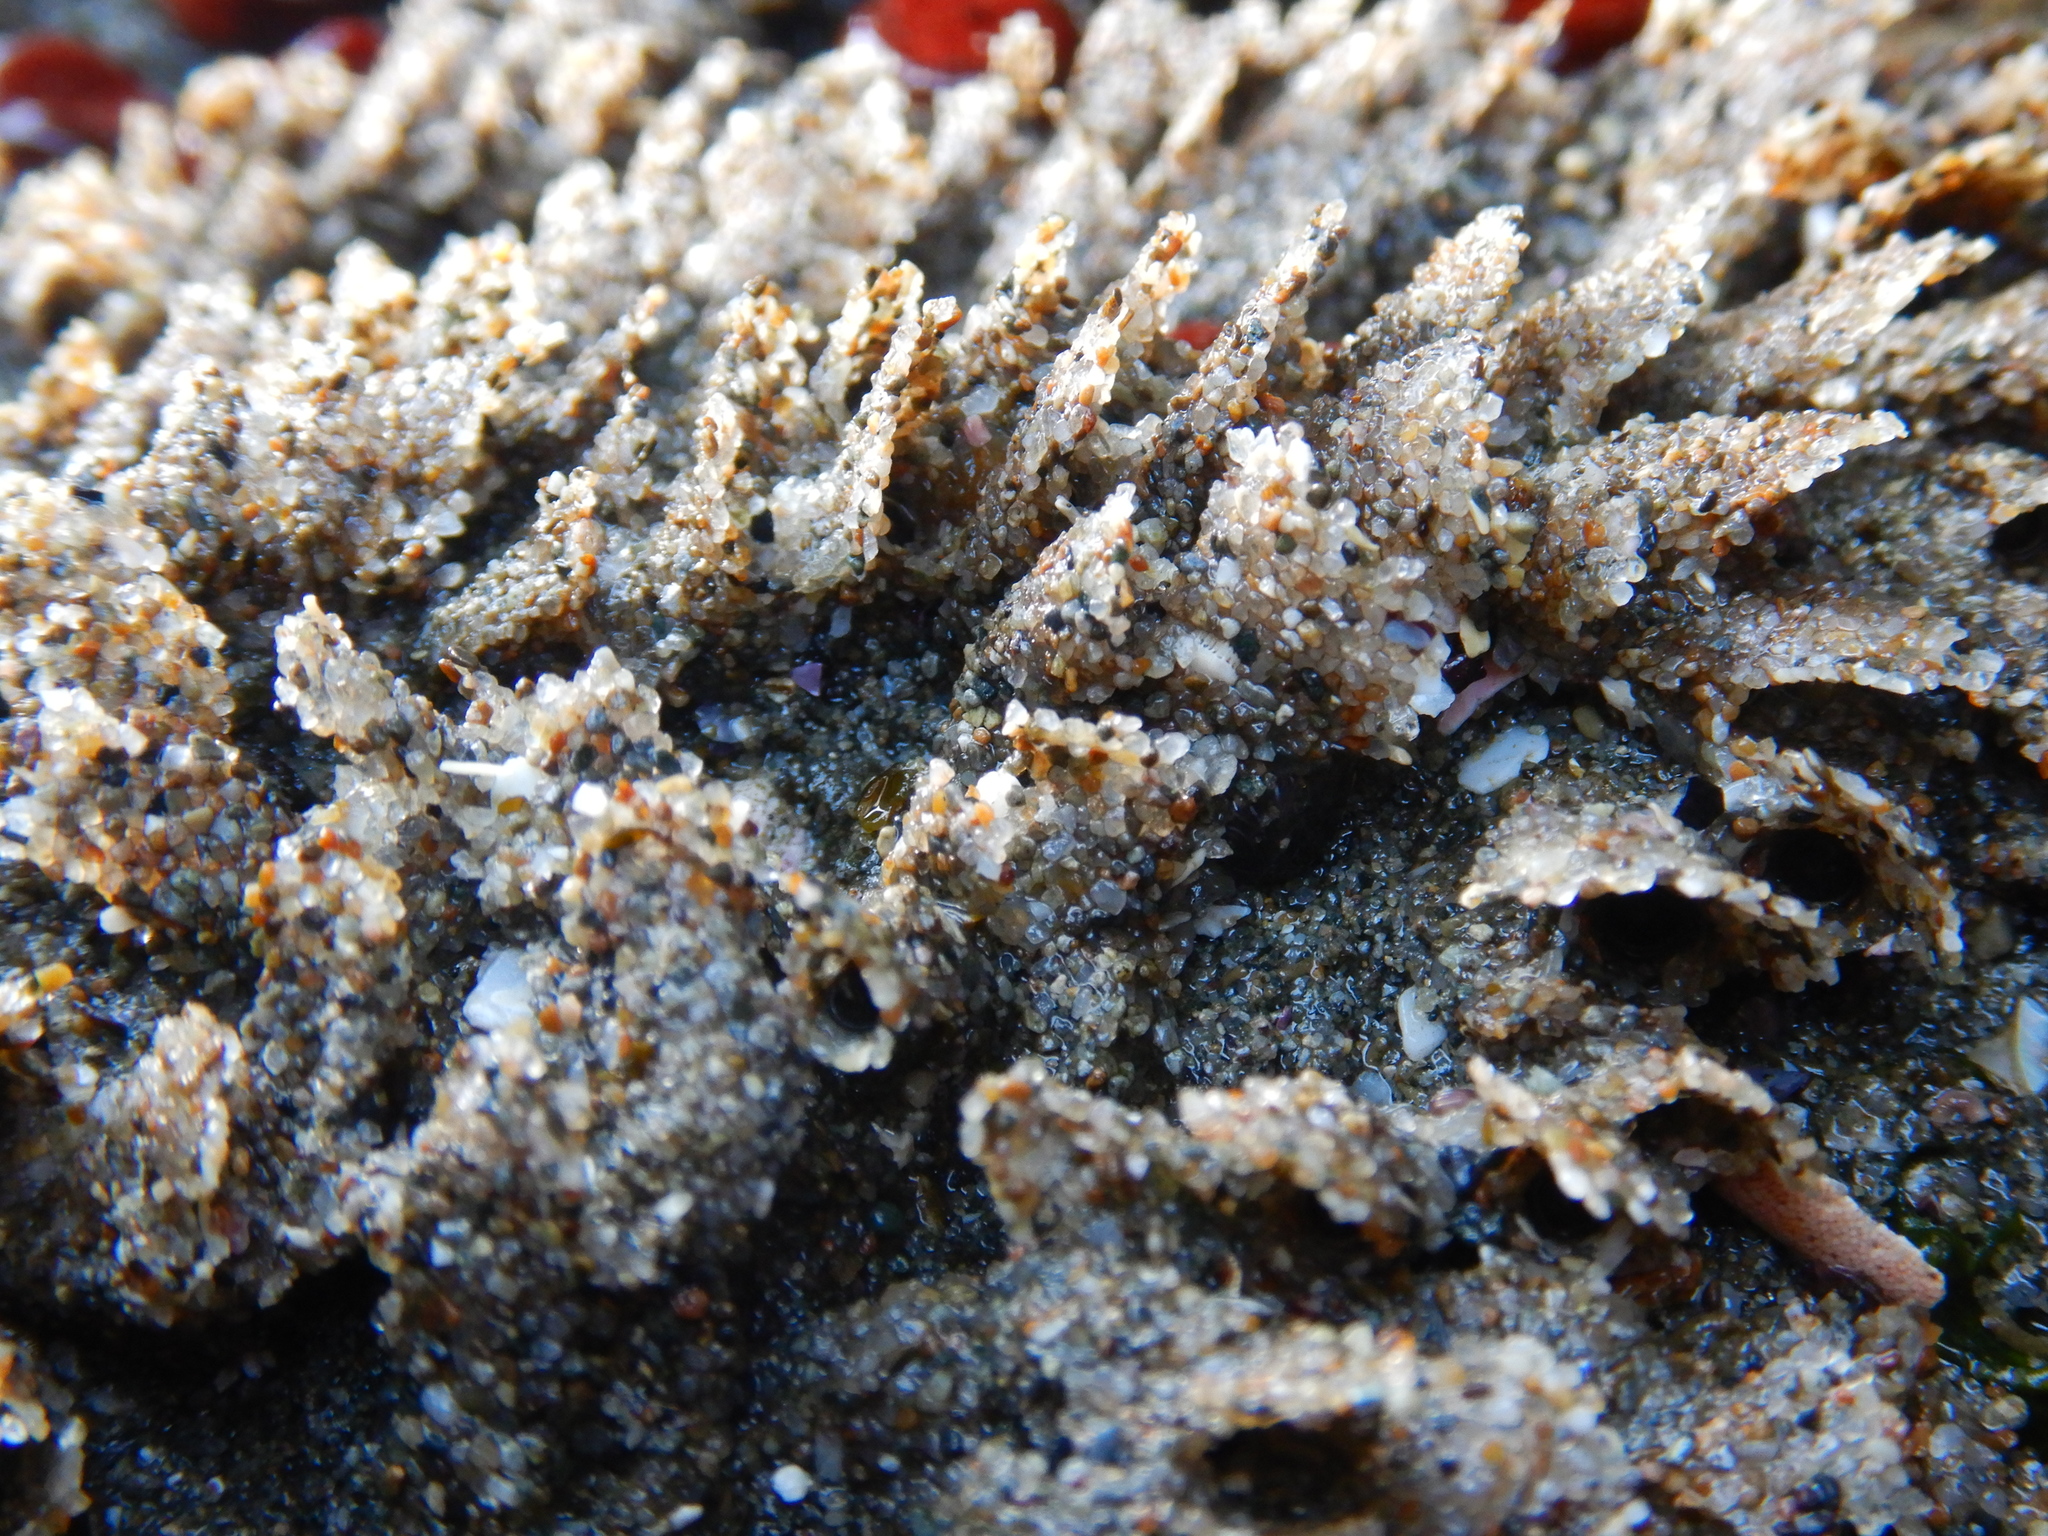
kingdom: Animalia
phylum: Annelida
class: Polychaeta
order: Sabellida
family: Sabellariidae
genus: Phragmatopoma
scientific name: Phragmatopoma virgini
